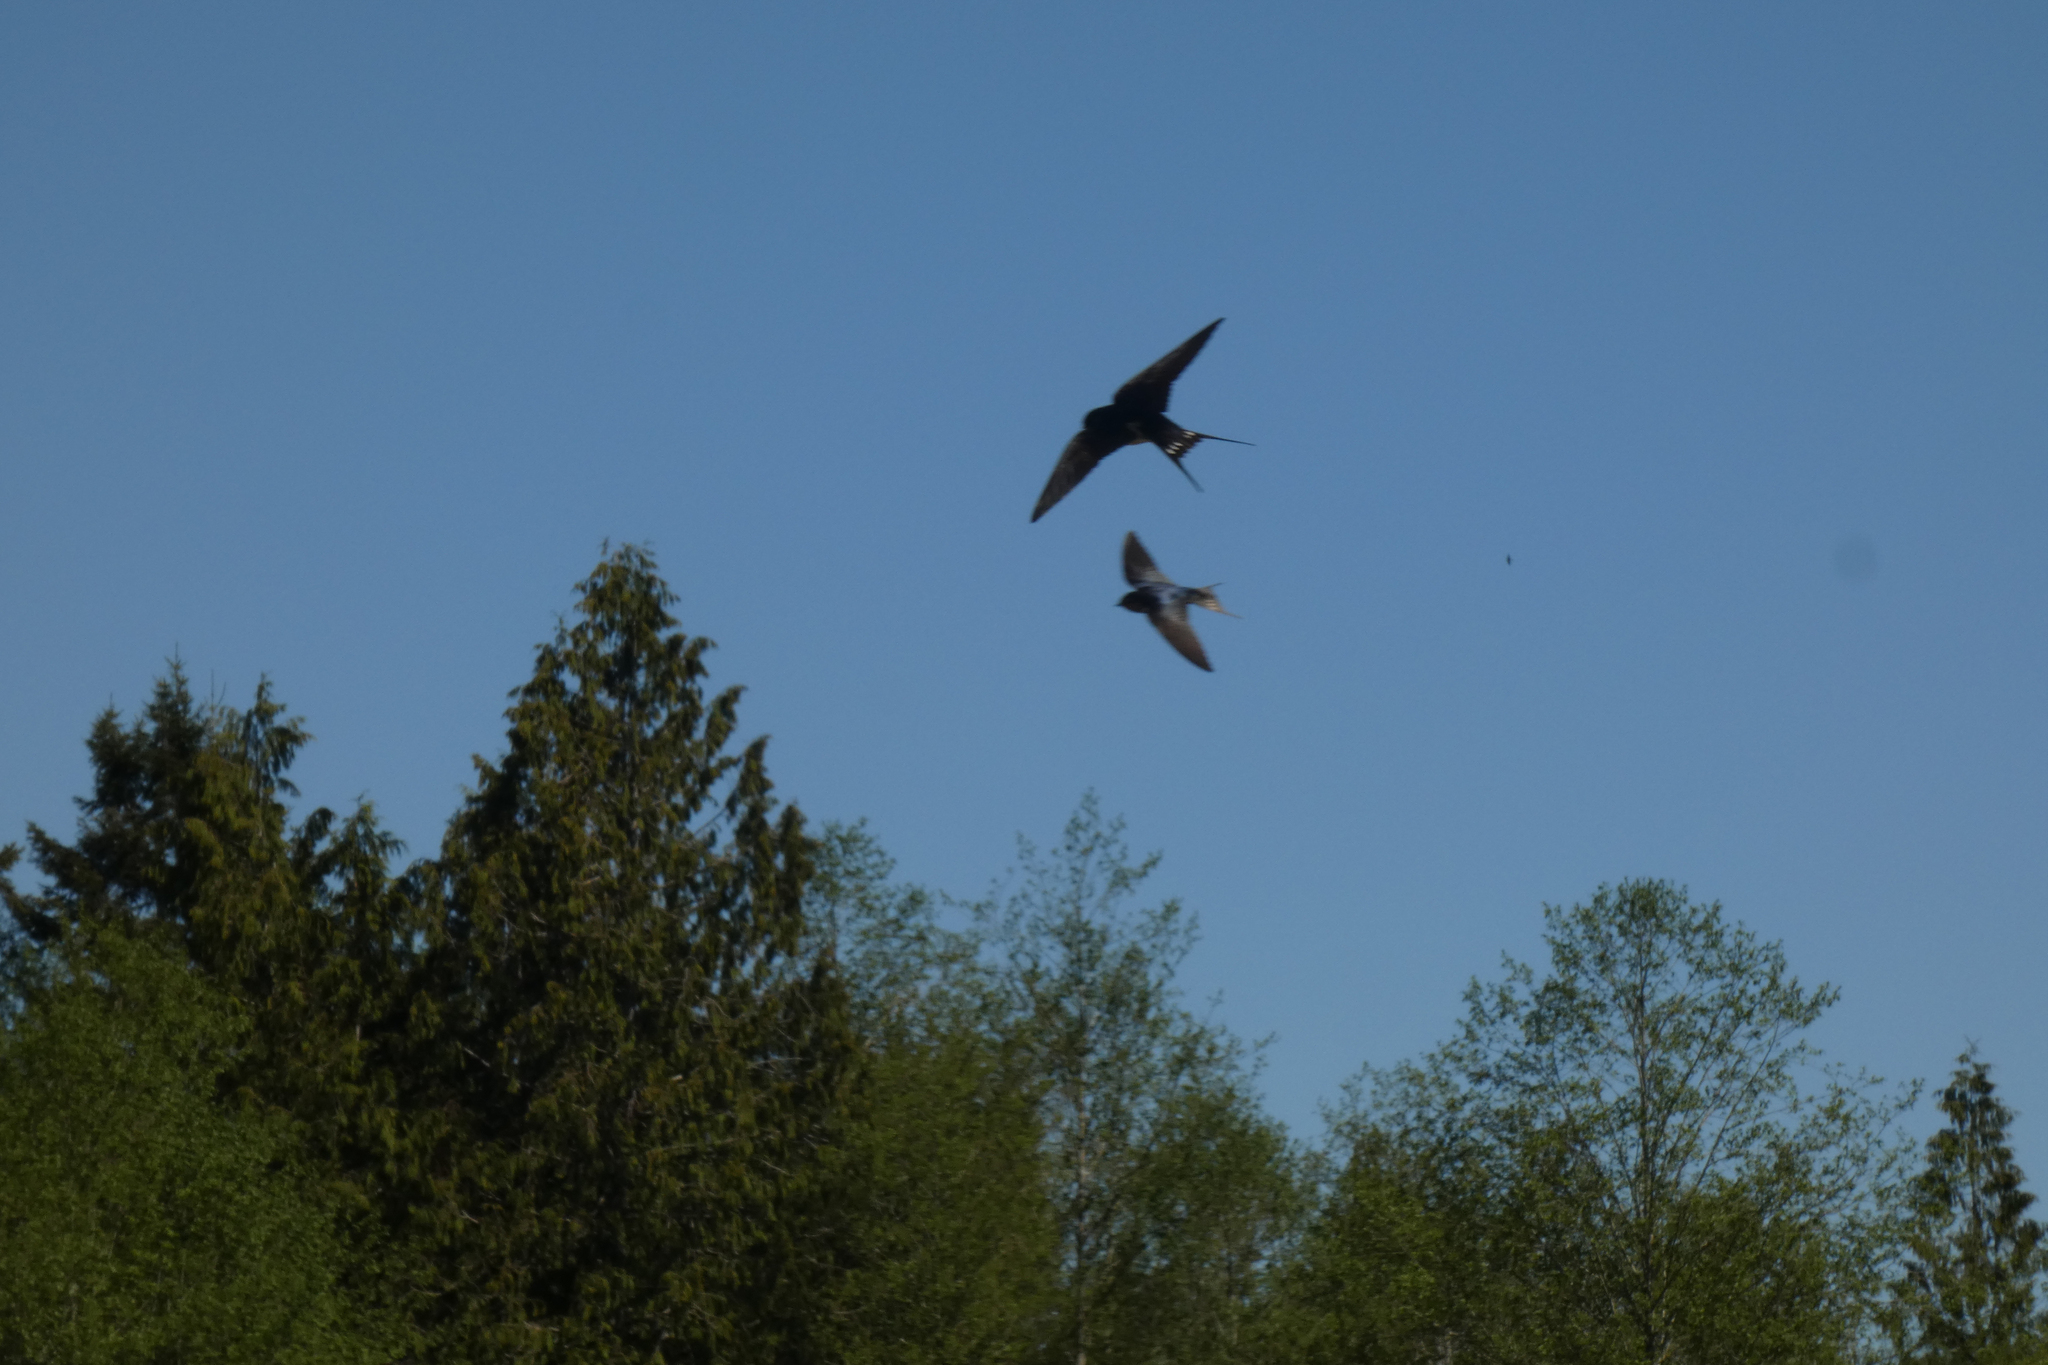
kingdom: Animalia
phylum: Chordata
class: Aves
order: Passeriformes
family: Hirundinidae
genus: Hirundo
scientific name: Hirundo rustica
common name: Barn swallow
